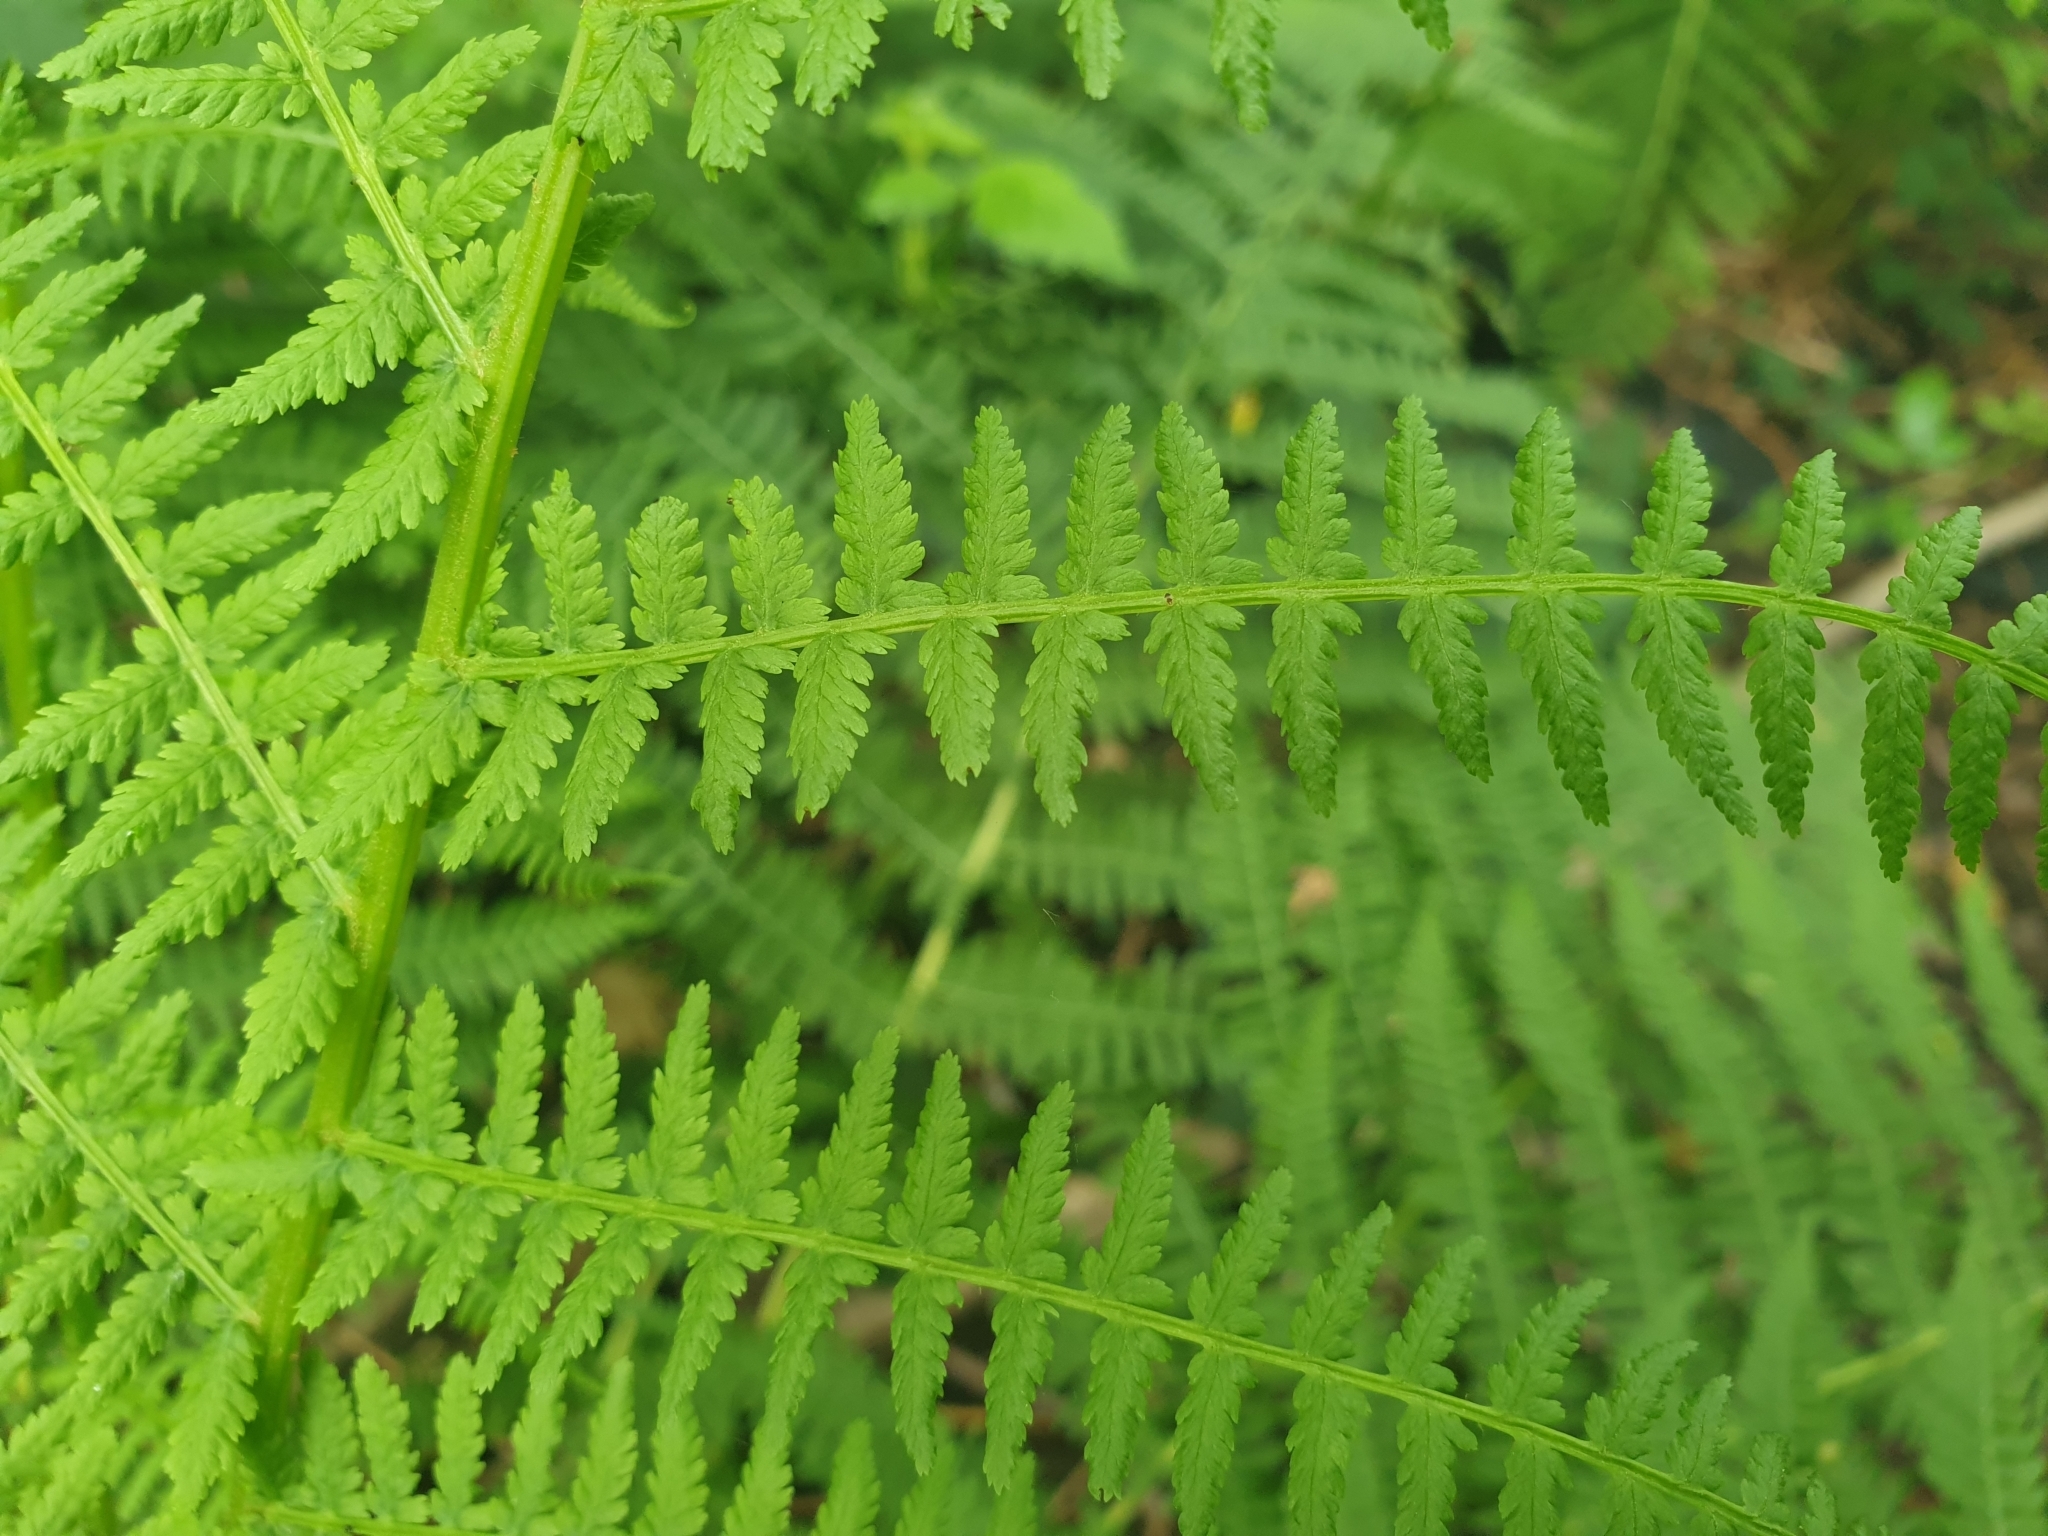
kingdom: Plantae
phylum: Tracheophyta
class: Polypodiopsida
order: Polypodiales
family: Athyriaceae
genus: Athyrium
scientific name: Athyrium filix-femina
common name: Lady fern
